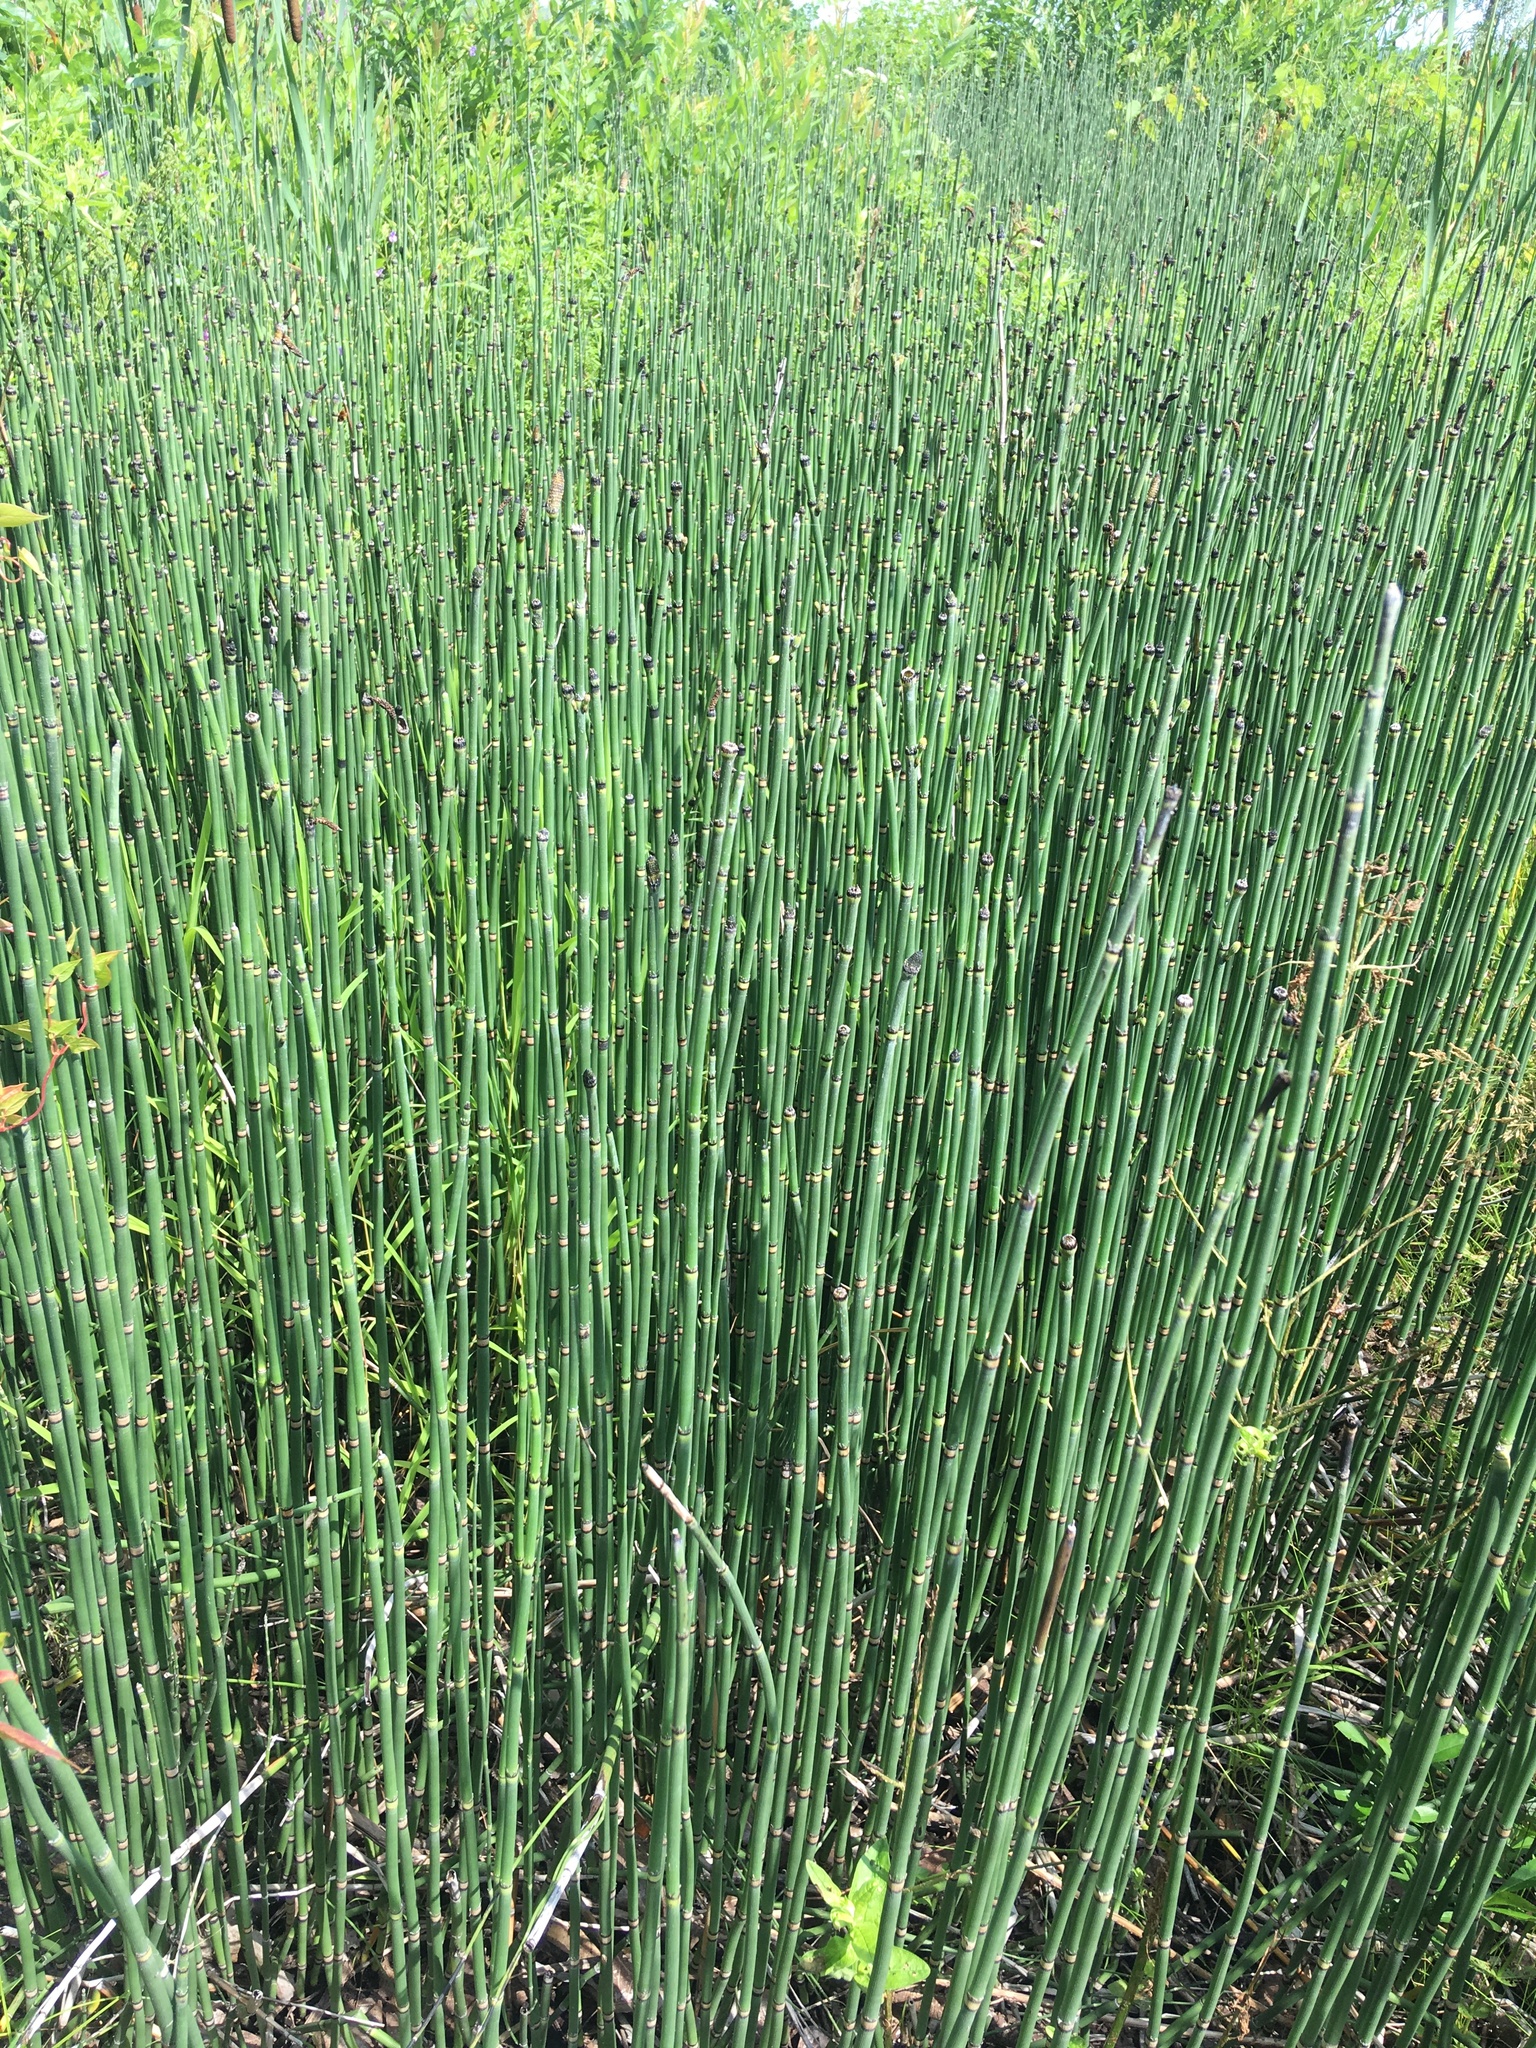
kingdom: Plantae
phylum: Tracheophyta
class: Polypodiopsida
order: Equisetales
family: Equisetaceae
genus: Equisetum
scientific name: Equisetum hyemale
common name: Rough horsetail
